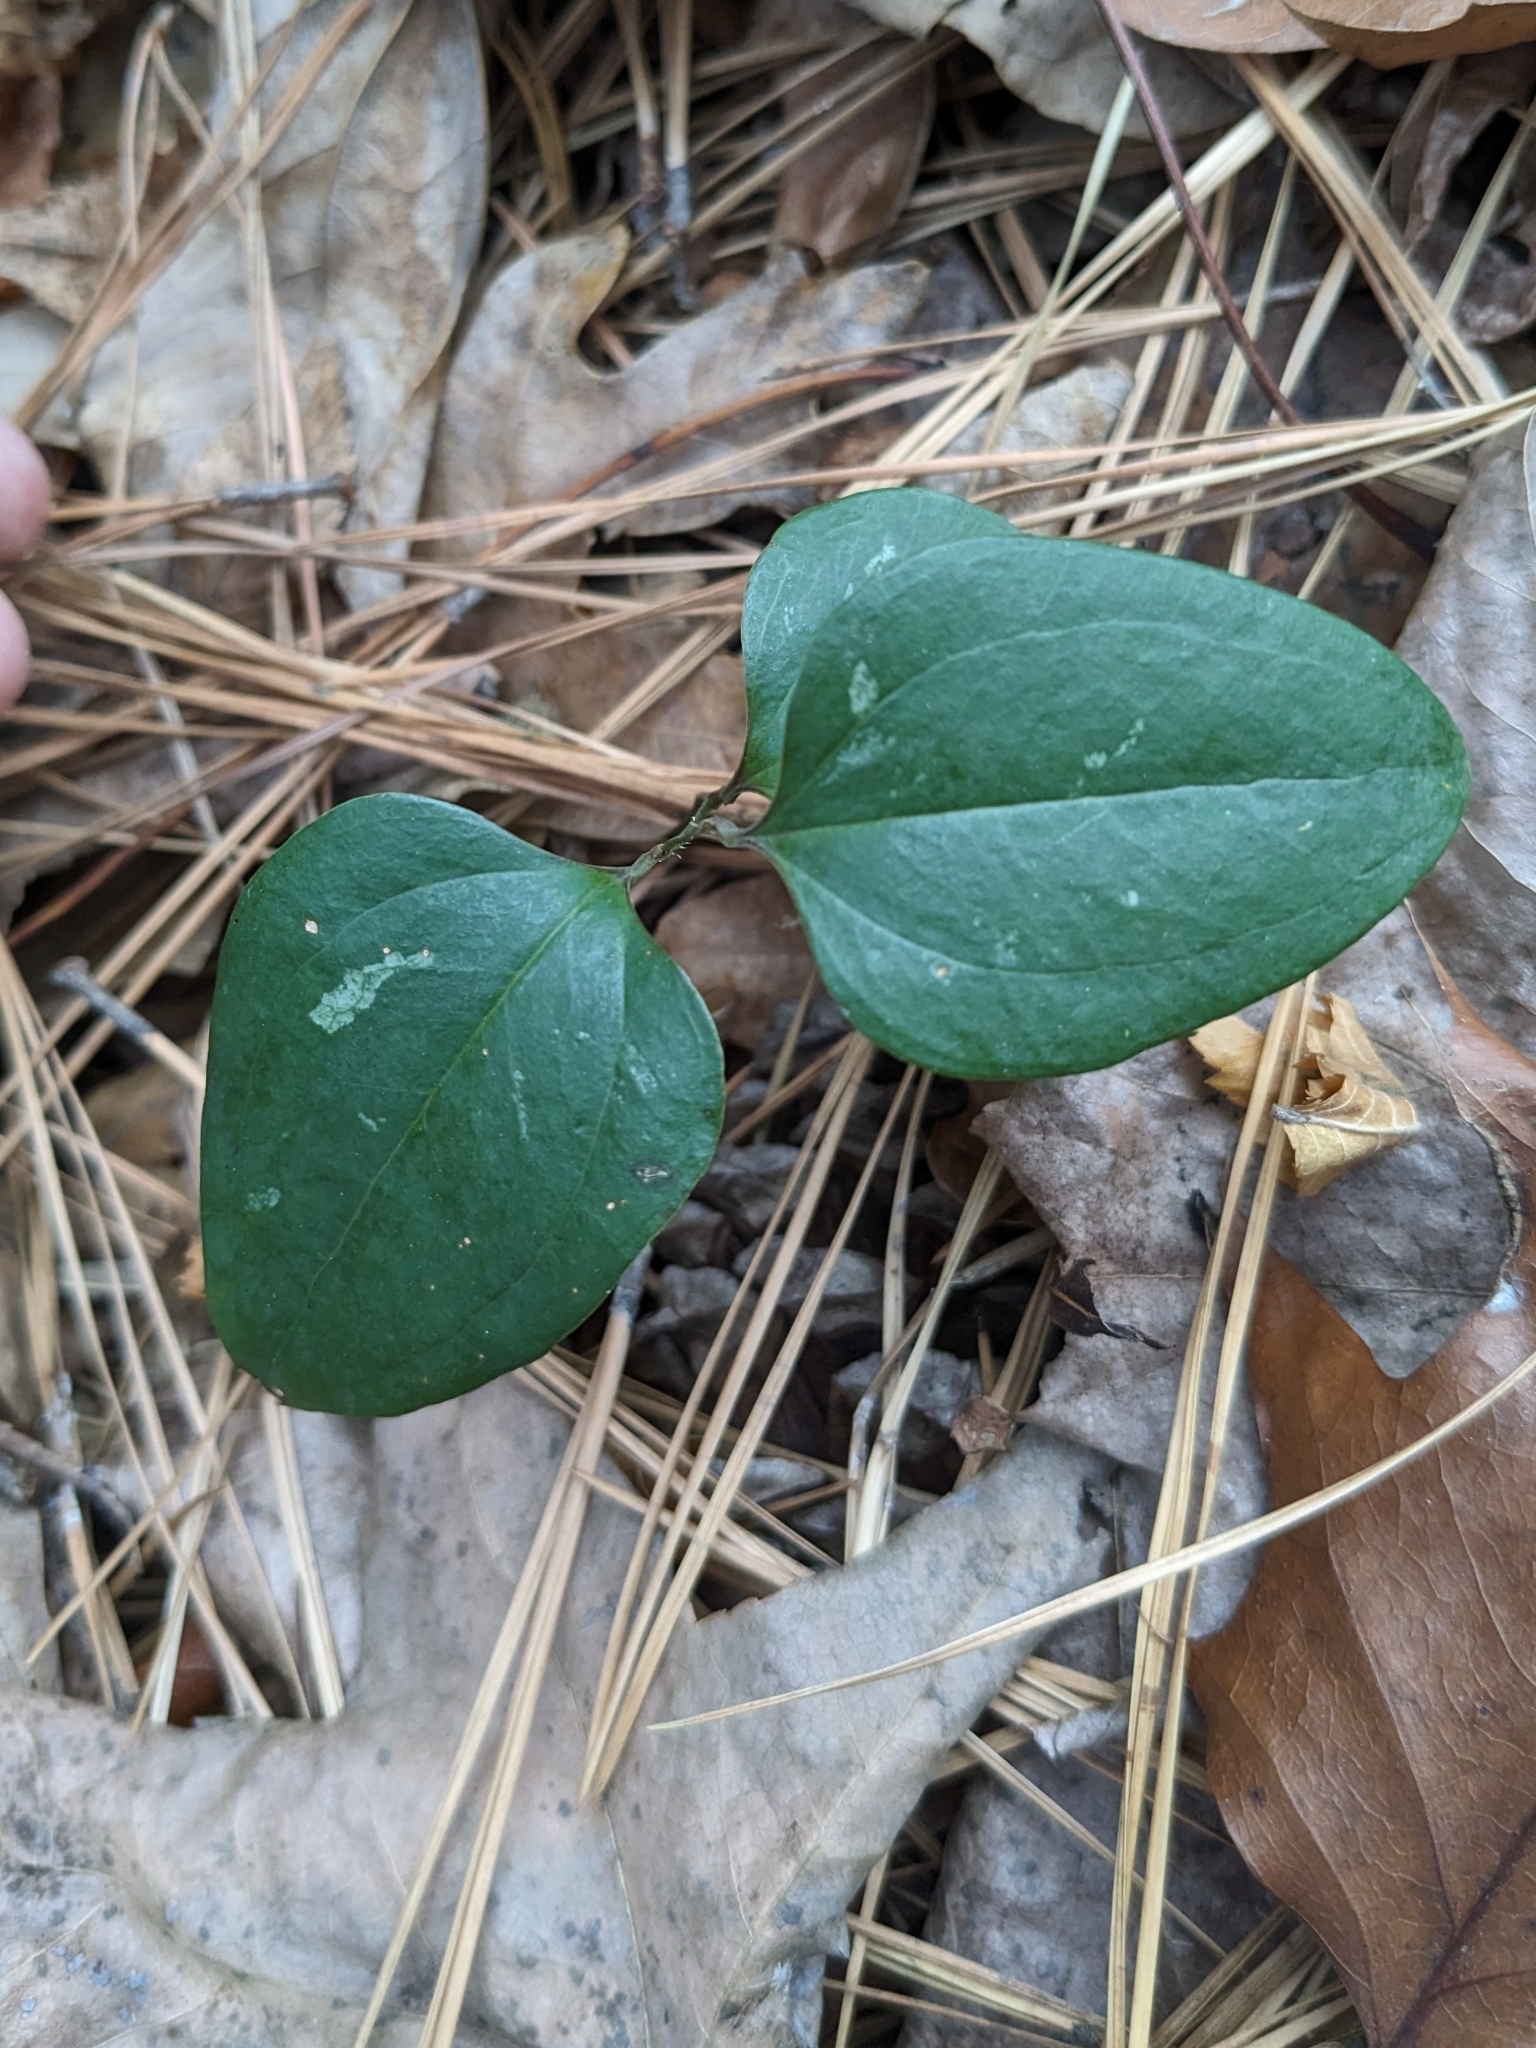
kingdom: Plantae
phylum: Tracheophyta
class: Liliopsida
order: Liliales
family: Smilacaceae
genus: Smilax
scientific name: Smilax glauca
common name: Cat greenbrier
